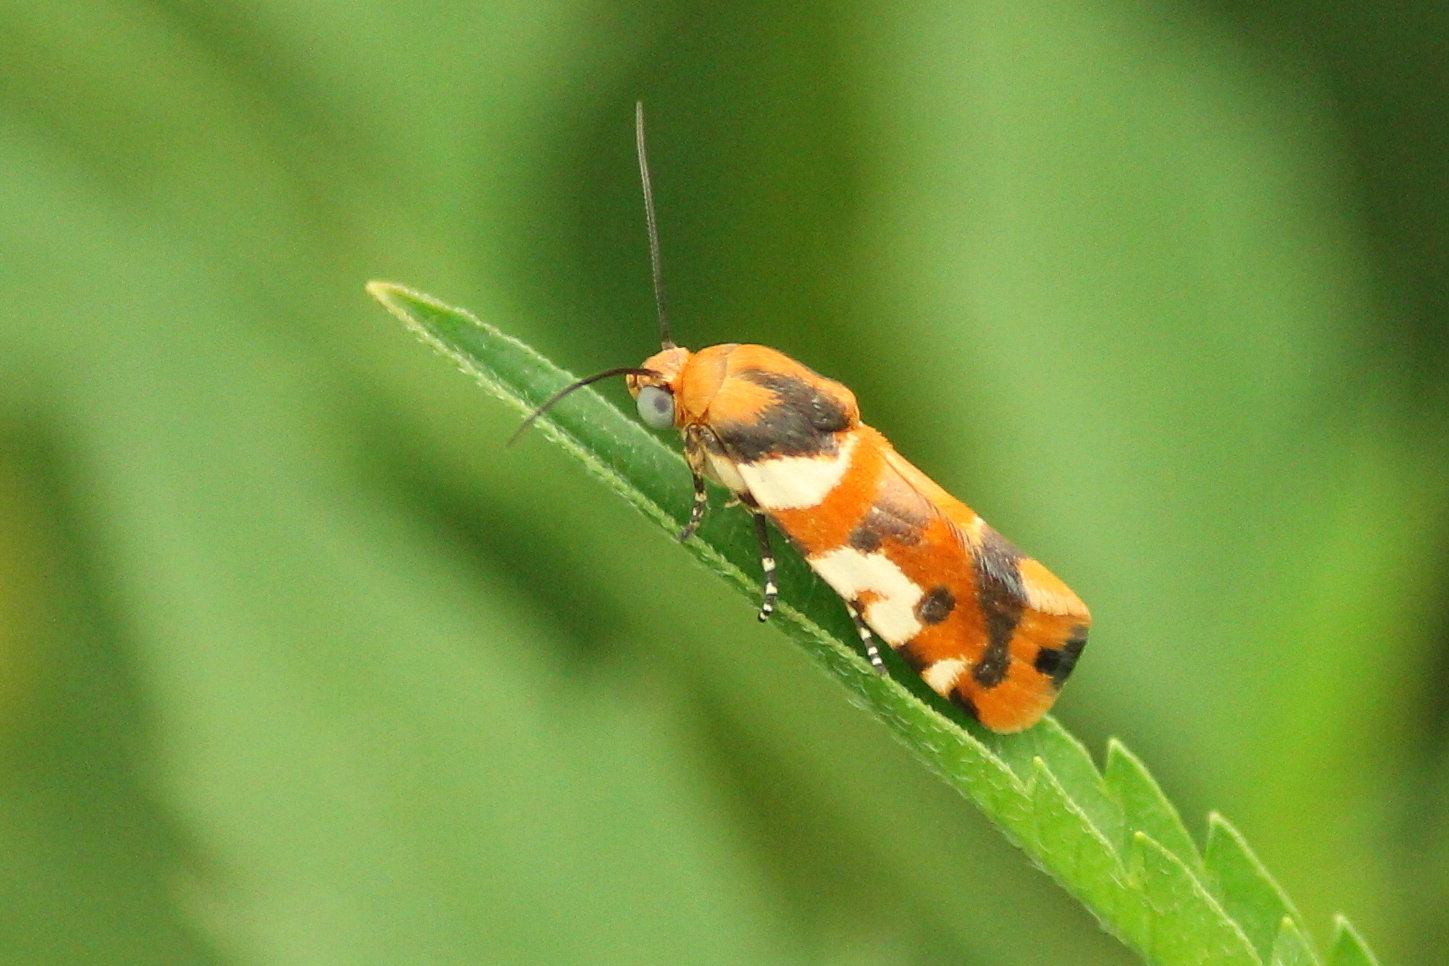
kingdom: Animalia
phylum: Arthropoda
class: Insecta
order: Lepidoptera
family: Noctuidae
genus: Acontia
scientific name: Acontia dama
